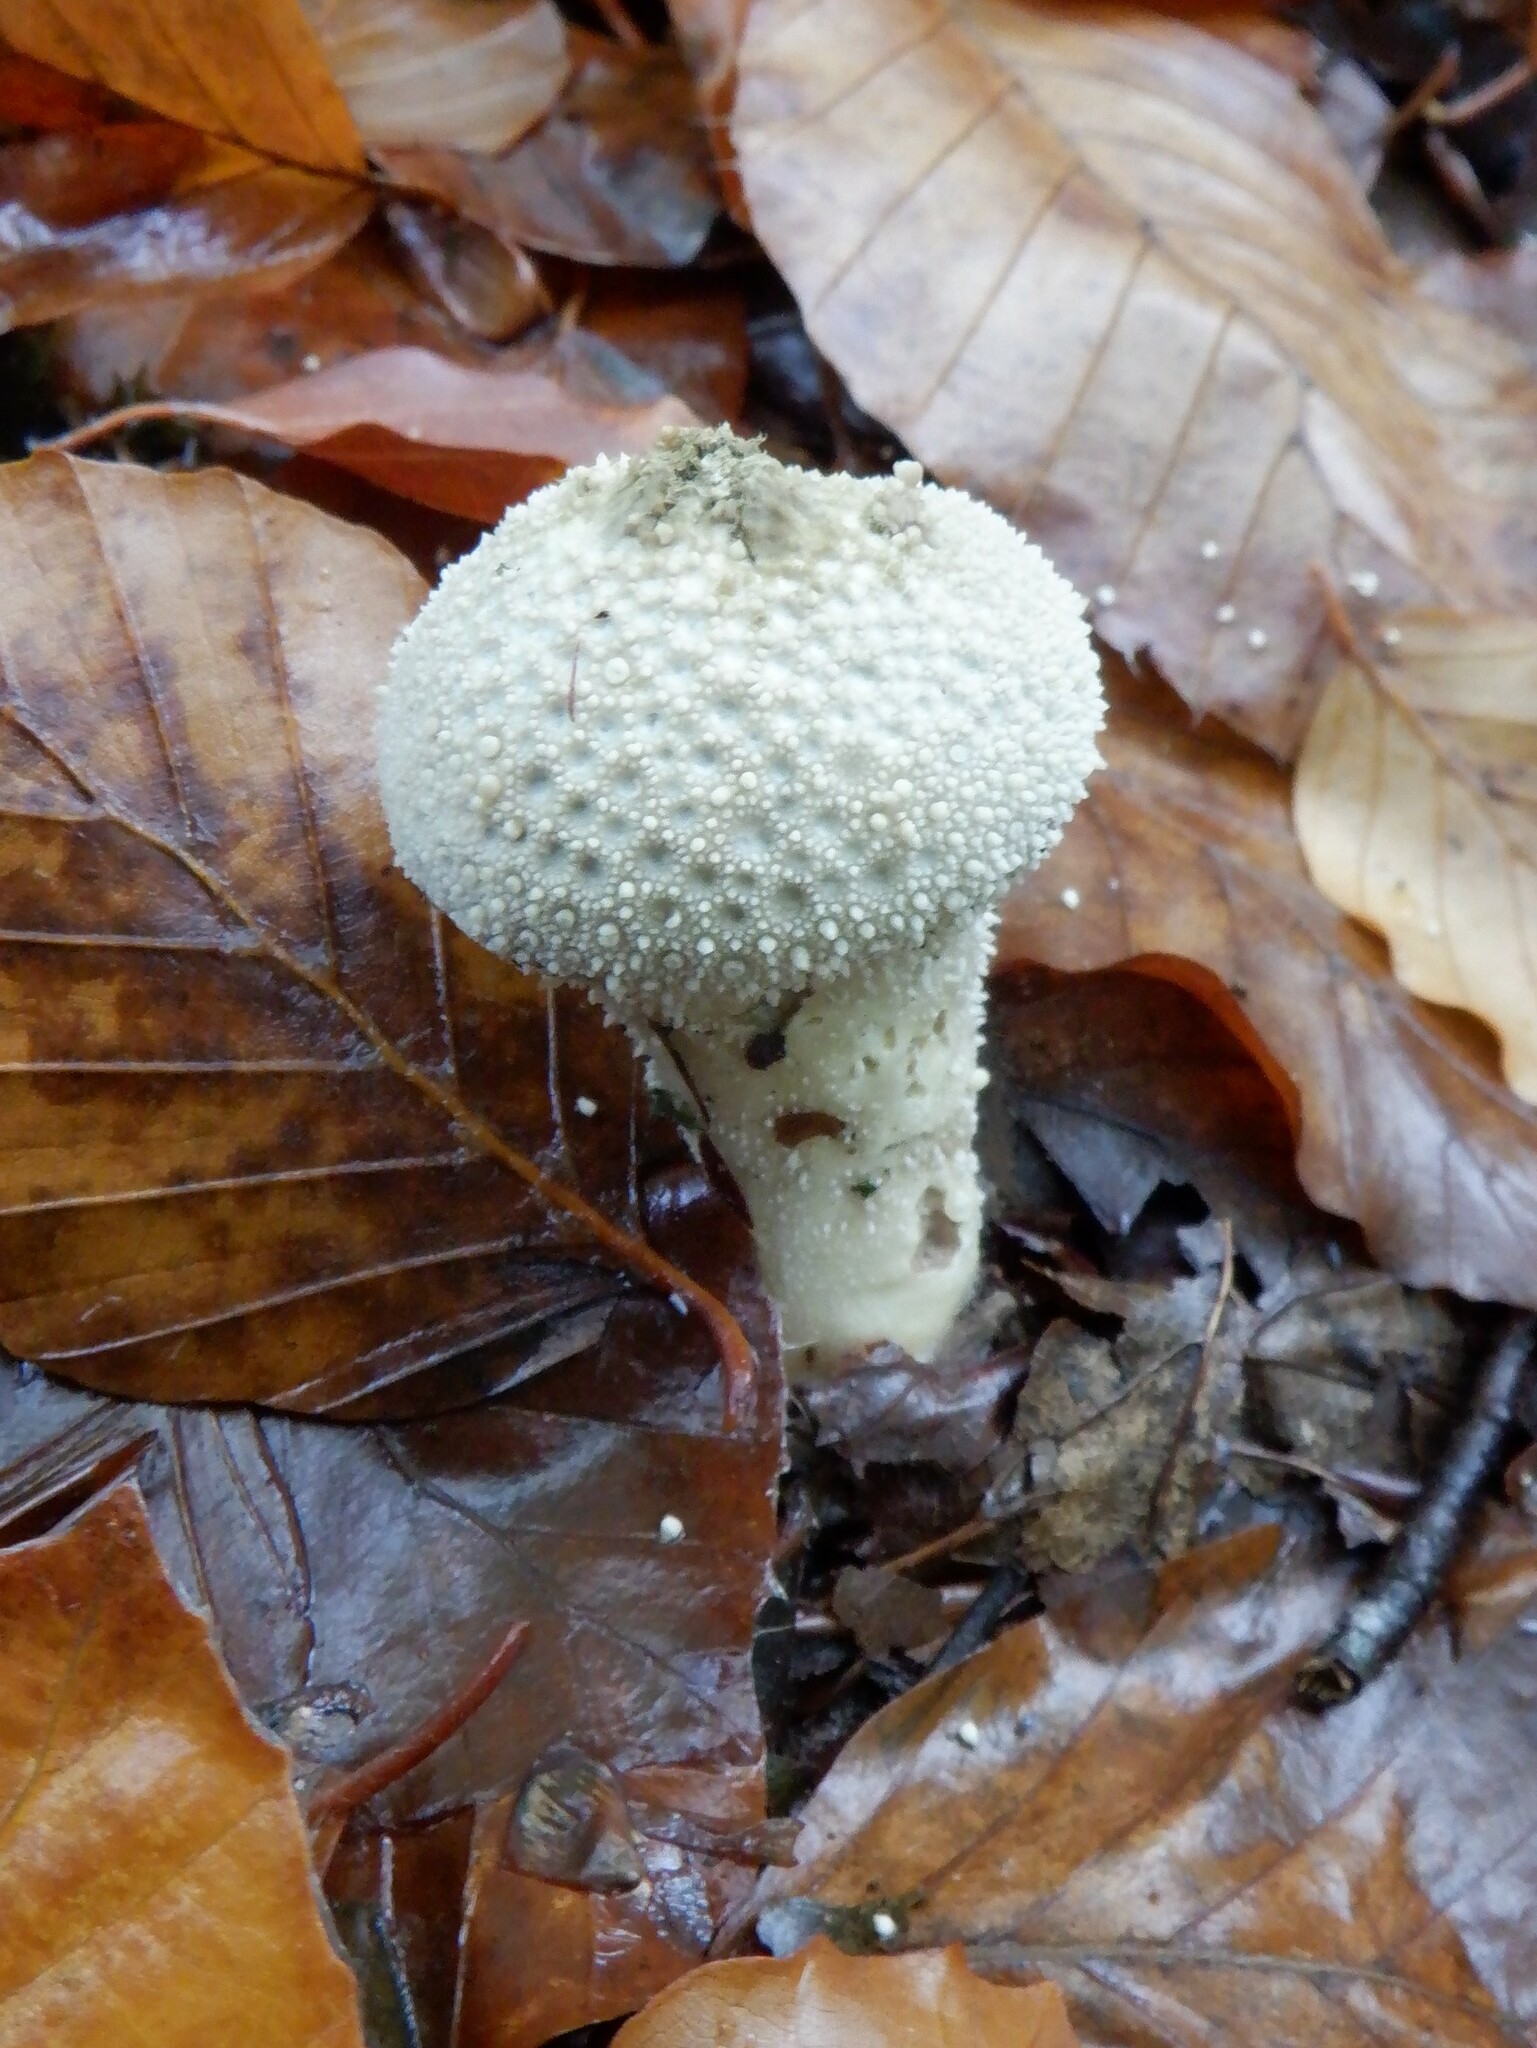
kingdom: Fungi
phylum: Basidiomycota
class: Agaricomycetes
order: Agaricales
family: Lycoperdaceae
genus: Lycoperdon
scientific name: Lycoperdon perlatum
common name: Common puffball
